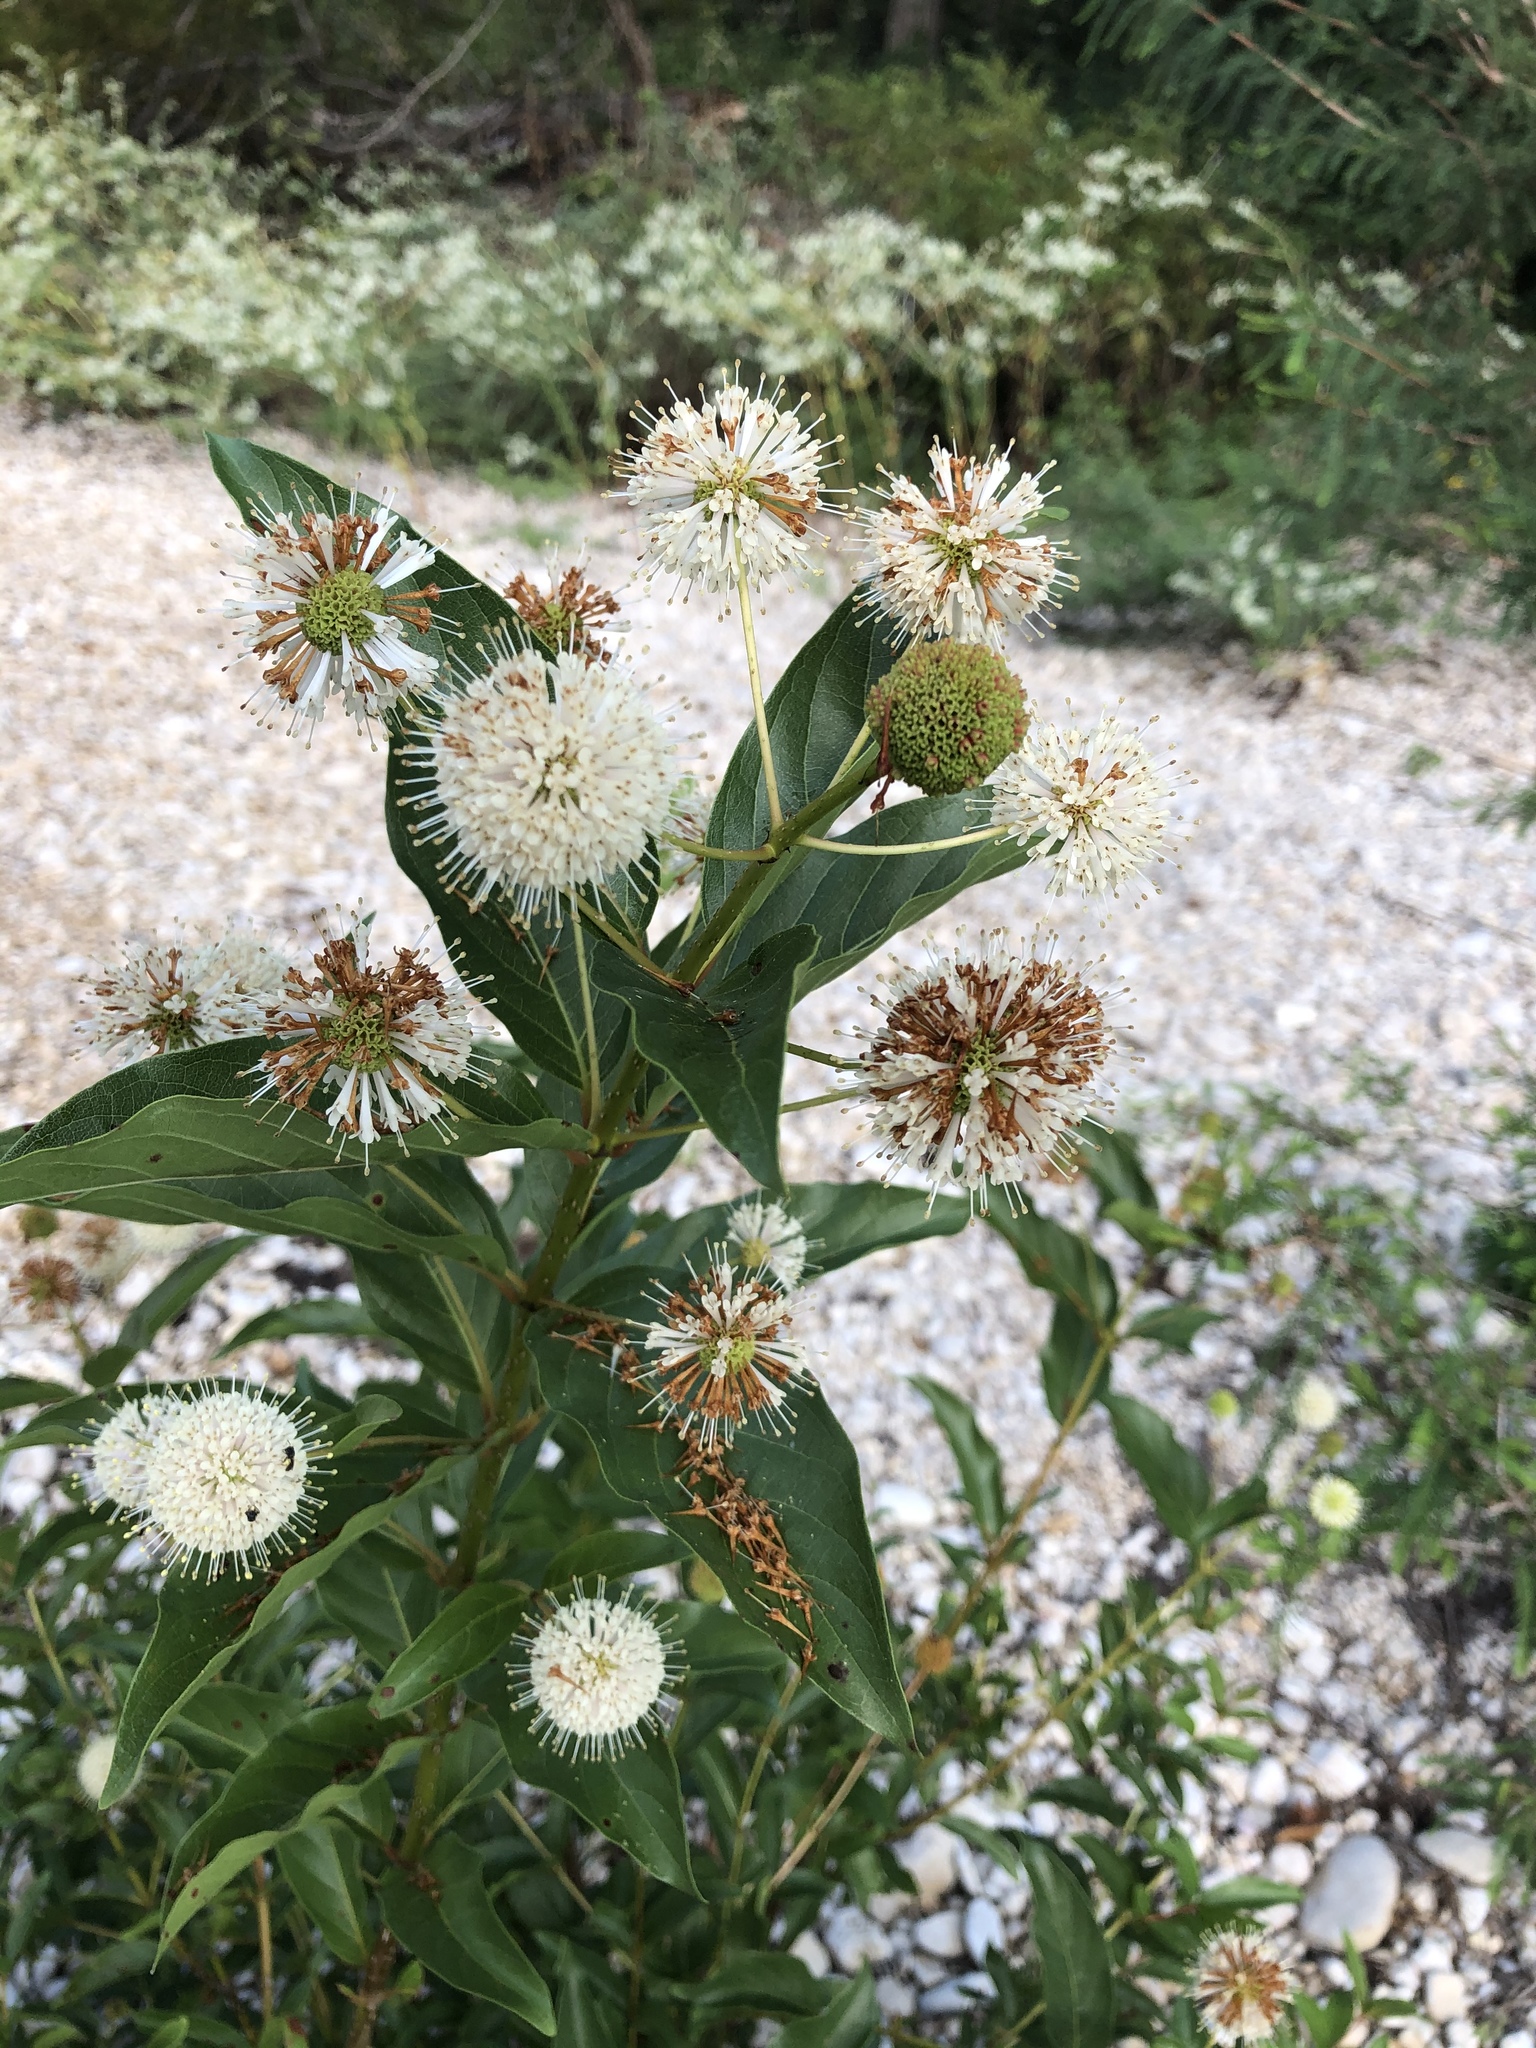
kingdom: Plantae
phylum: Tracheophyta
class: Magnoliopsida
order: Gentianales
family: Rubiaceae
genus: Cephalanthus
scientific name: Cephalanthus occidentalis
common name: Button-willow
